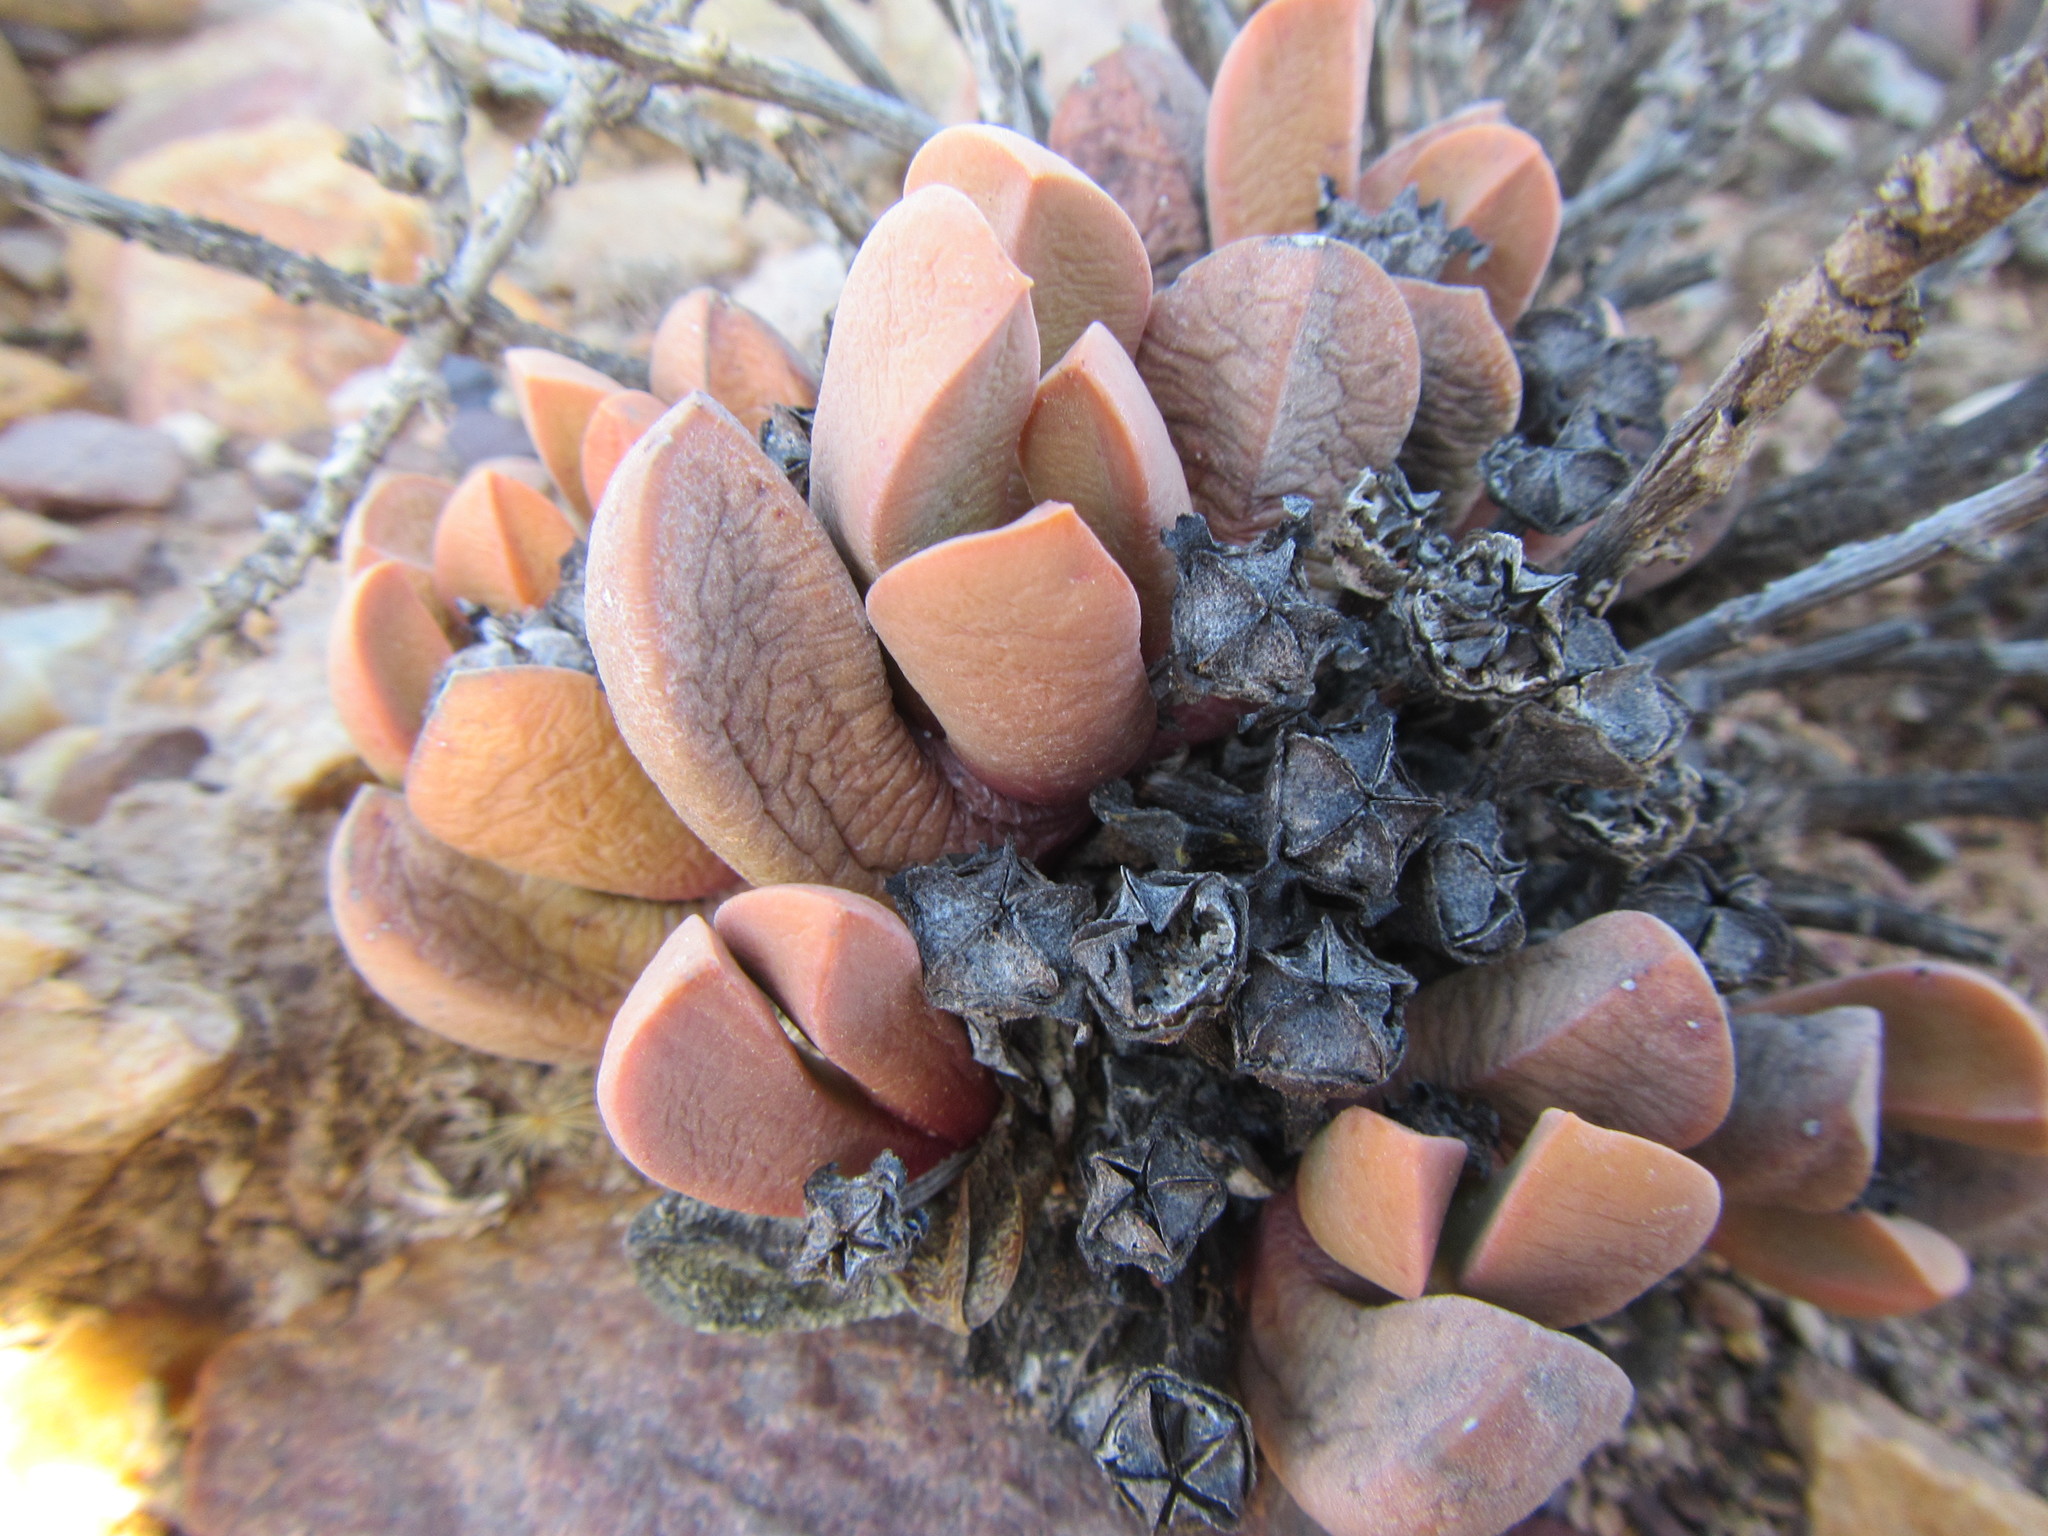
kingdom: Plantae
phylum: Tracheophyta
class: Magnoliopsida
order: Caryophyllales
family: Aizoaceae
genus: Cerochlamys
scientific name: Cerochlamys pachyphylla
